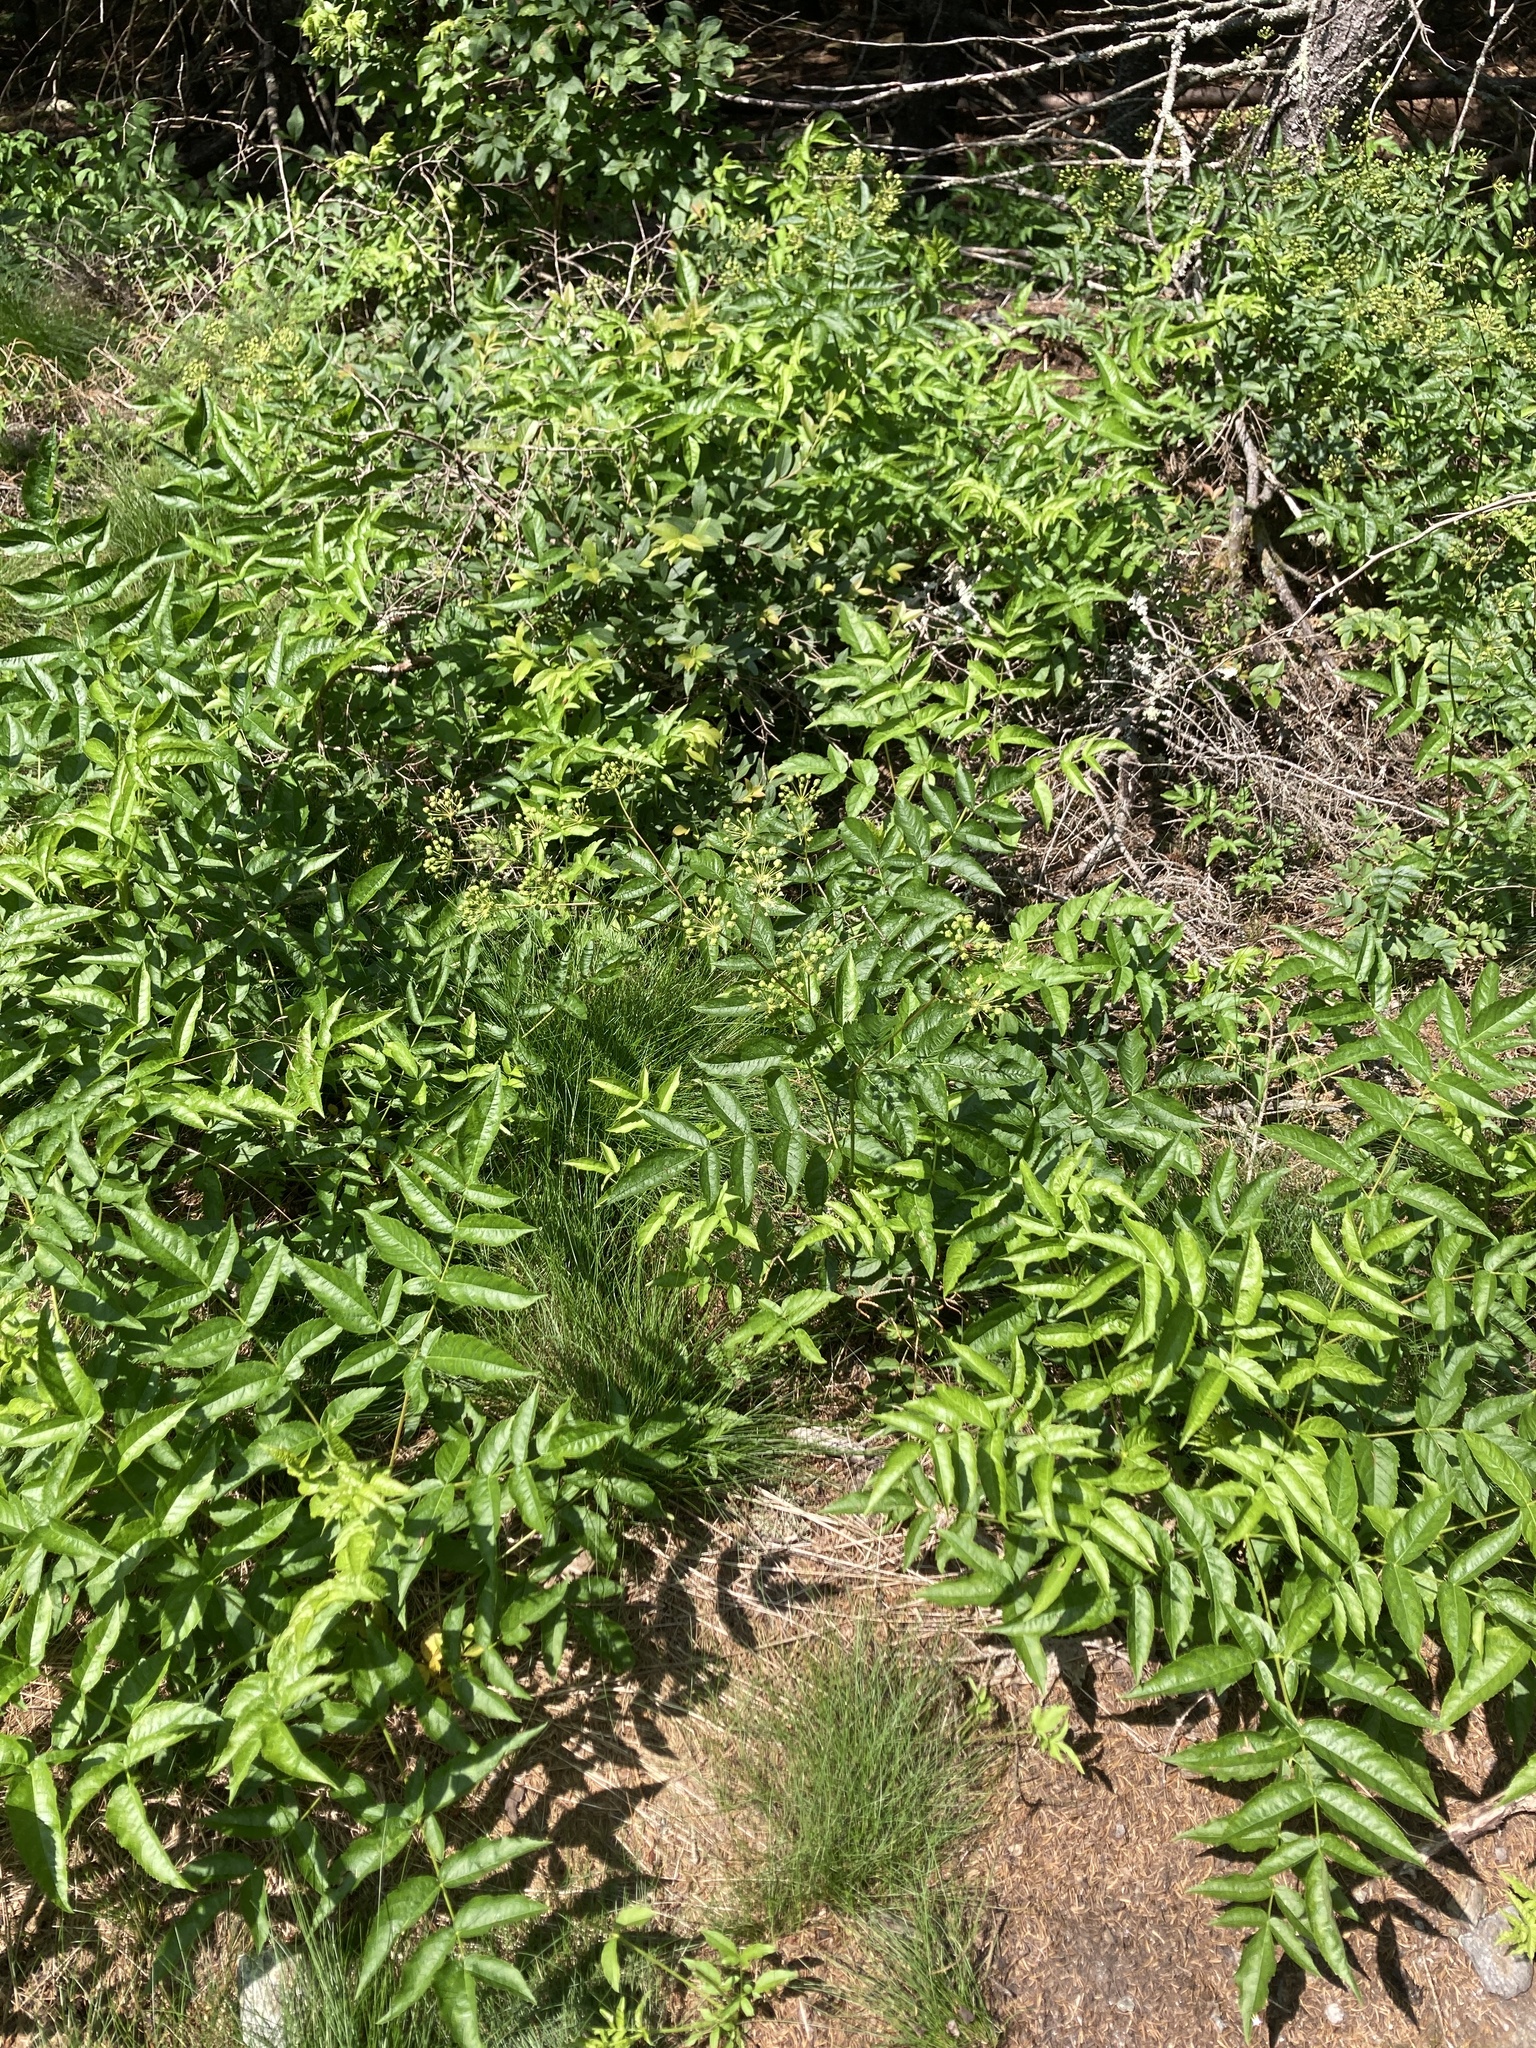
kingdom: Plantae
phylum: Tracheophyta
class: Magnoliopsida
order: Apiales
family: Araliaceae
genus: Aralia
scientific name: Aralia hispida
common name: Bristly sarsaparilla
